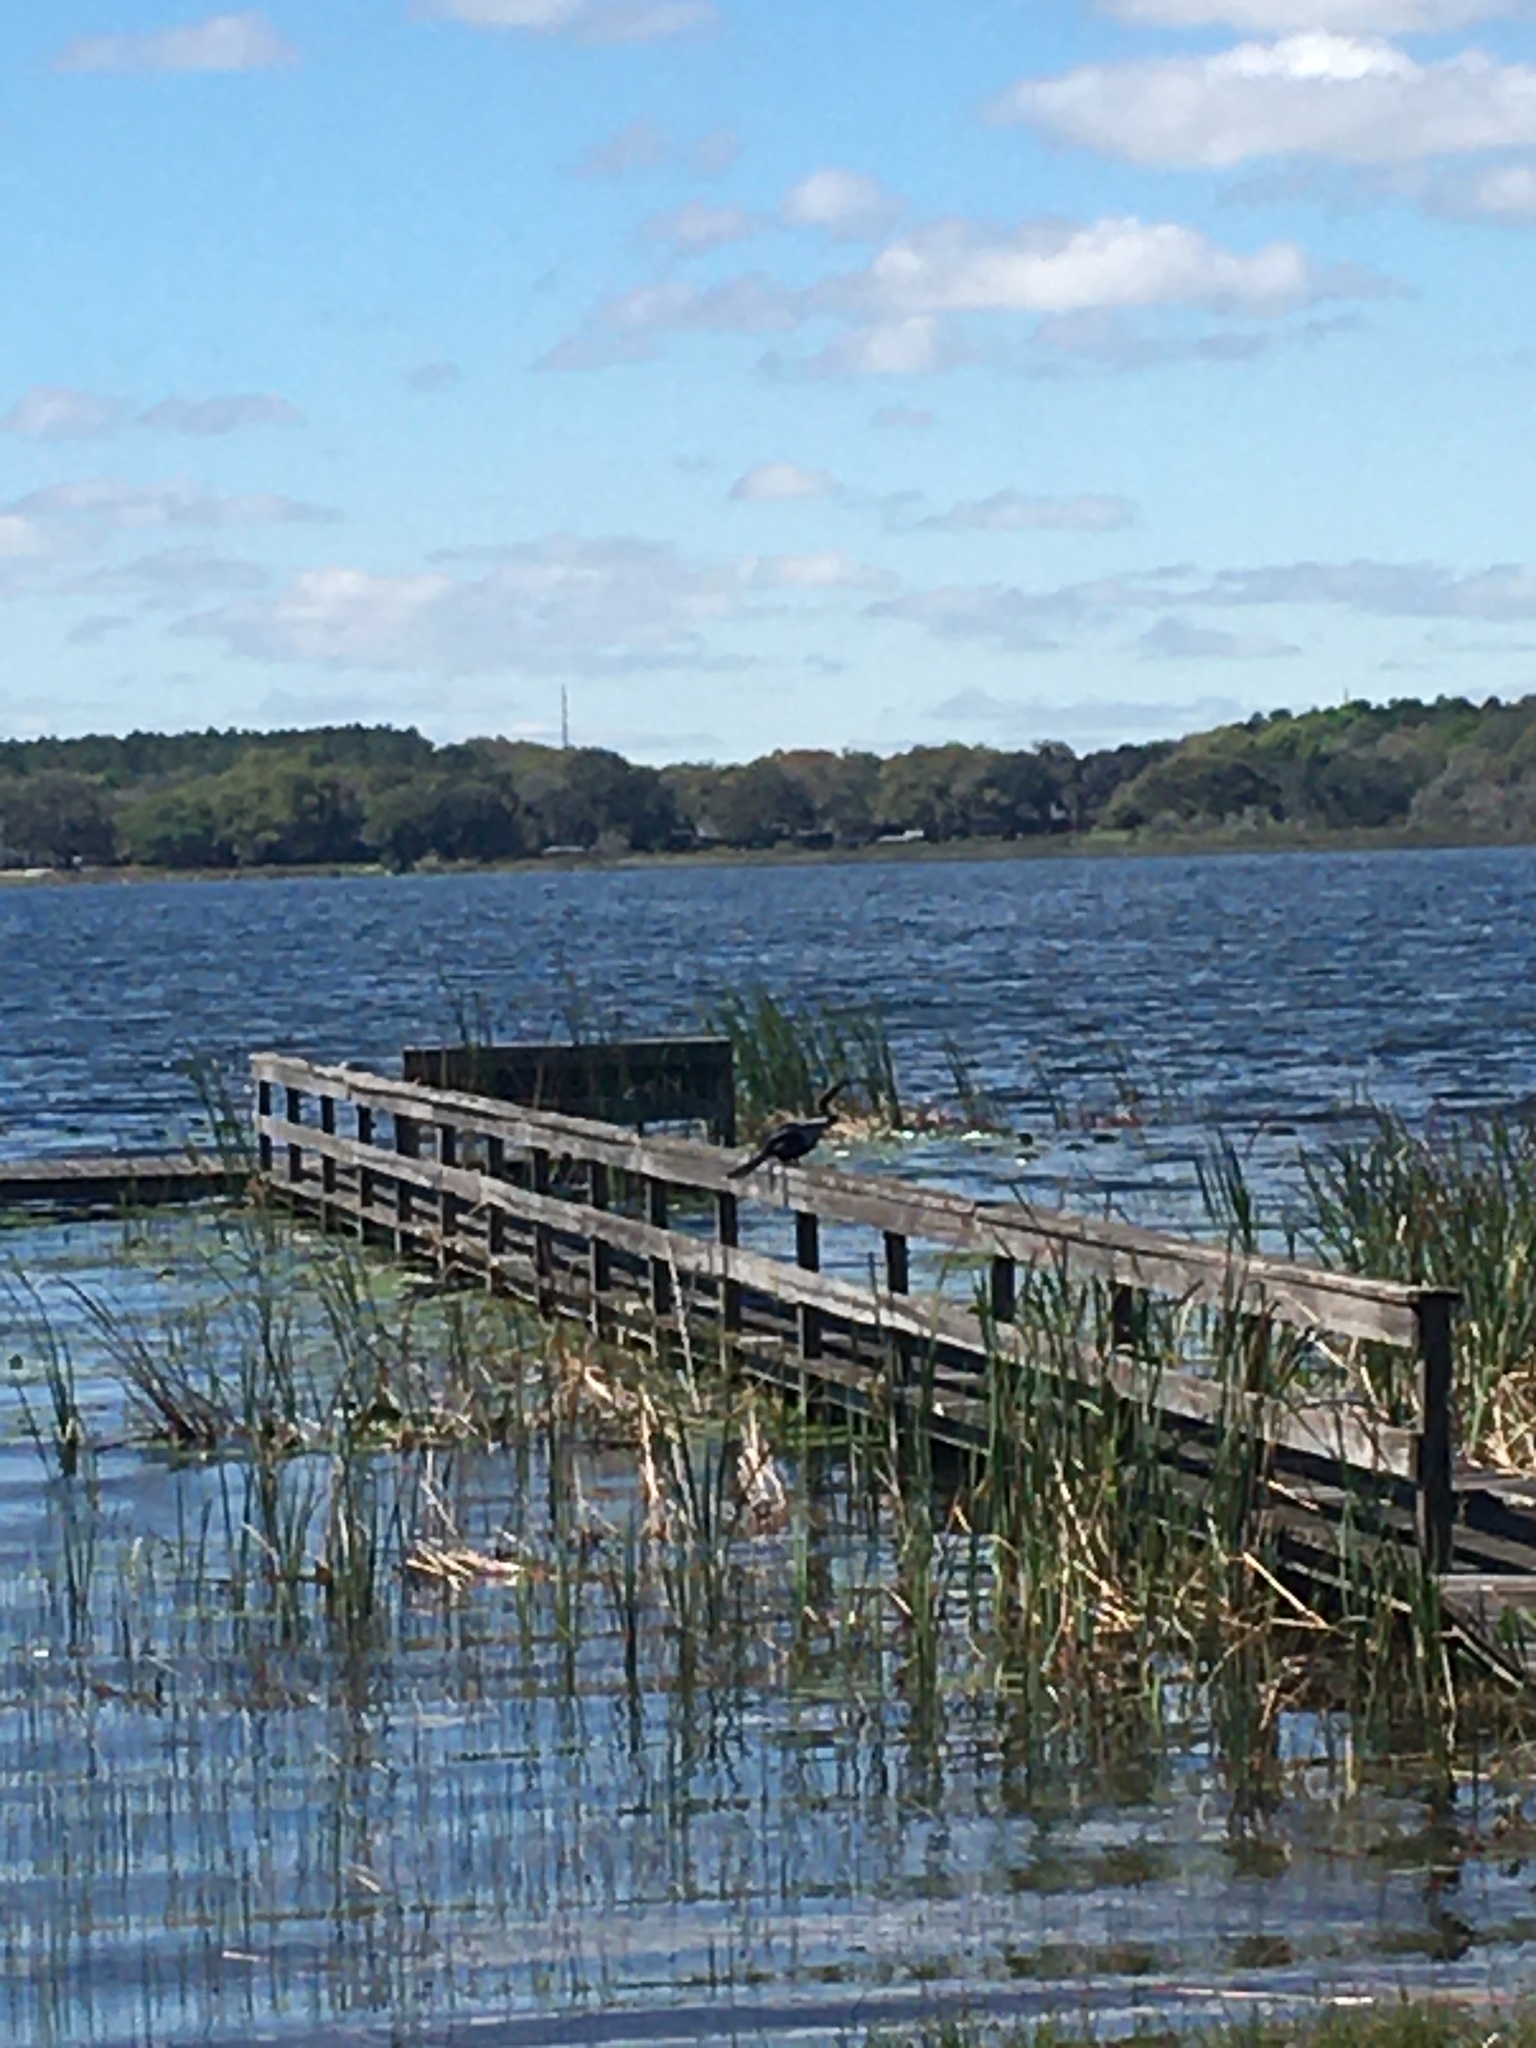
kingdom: Animalia
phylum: Chordata
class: Aves
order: Suliformes
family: Anhingidae
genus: Anhinga
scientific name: Anhinga anhinga
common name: Anhinga
